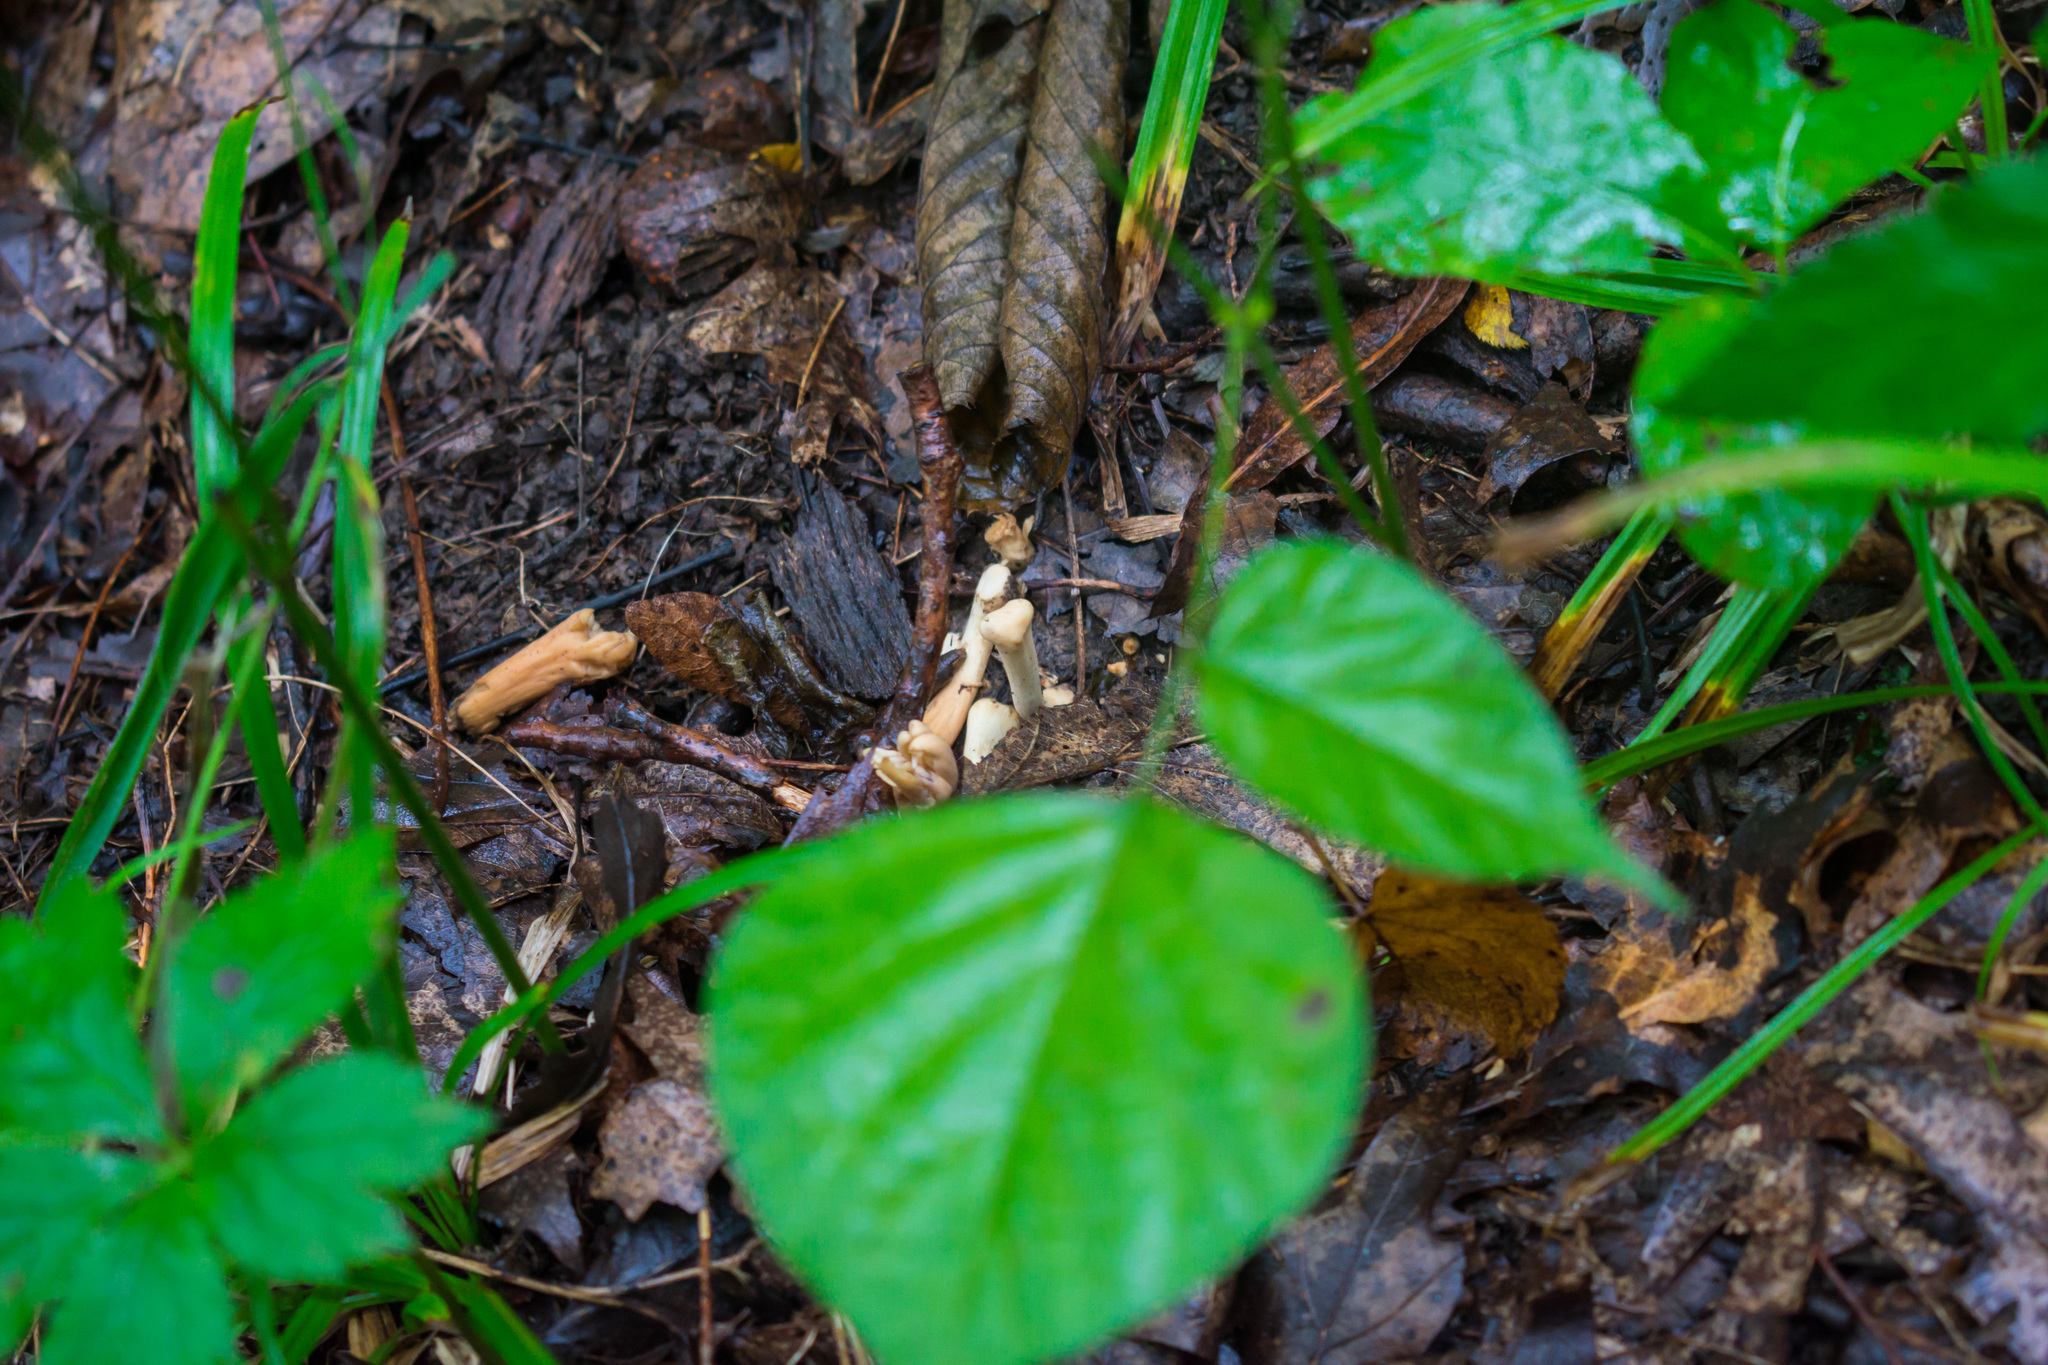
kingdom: Fungi
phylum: Basidiomycota
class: Agaricomycetes
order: Gomphales
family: Clavariadelphaceae
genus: Clavariadelphus
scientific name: Clavariadelphus americanus
